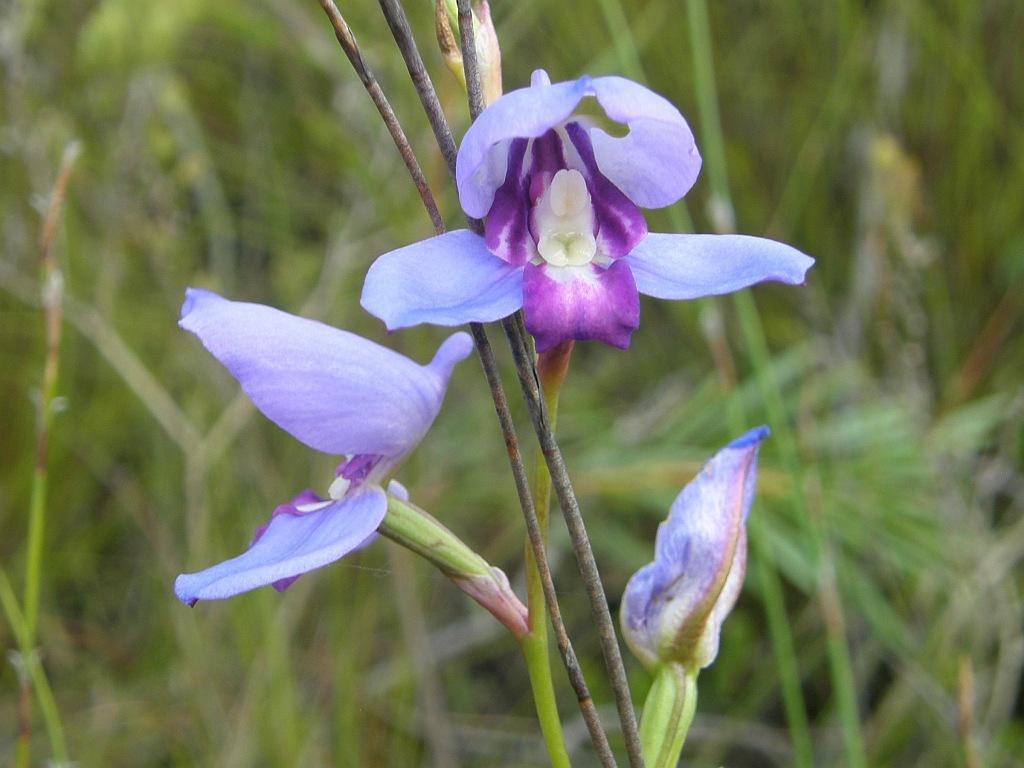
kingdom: Plantae
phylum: Tracheophyta
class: Liliopsida
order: Asparagales
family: Orchidaceae
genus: Disa
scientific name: Disa graminifolia
